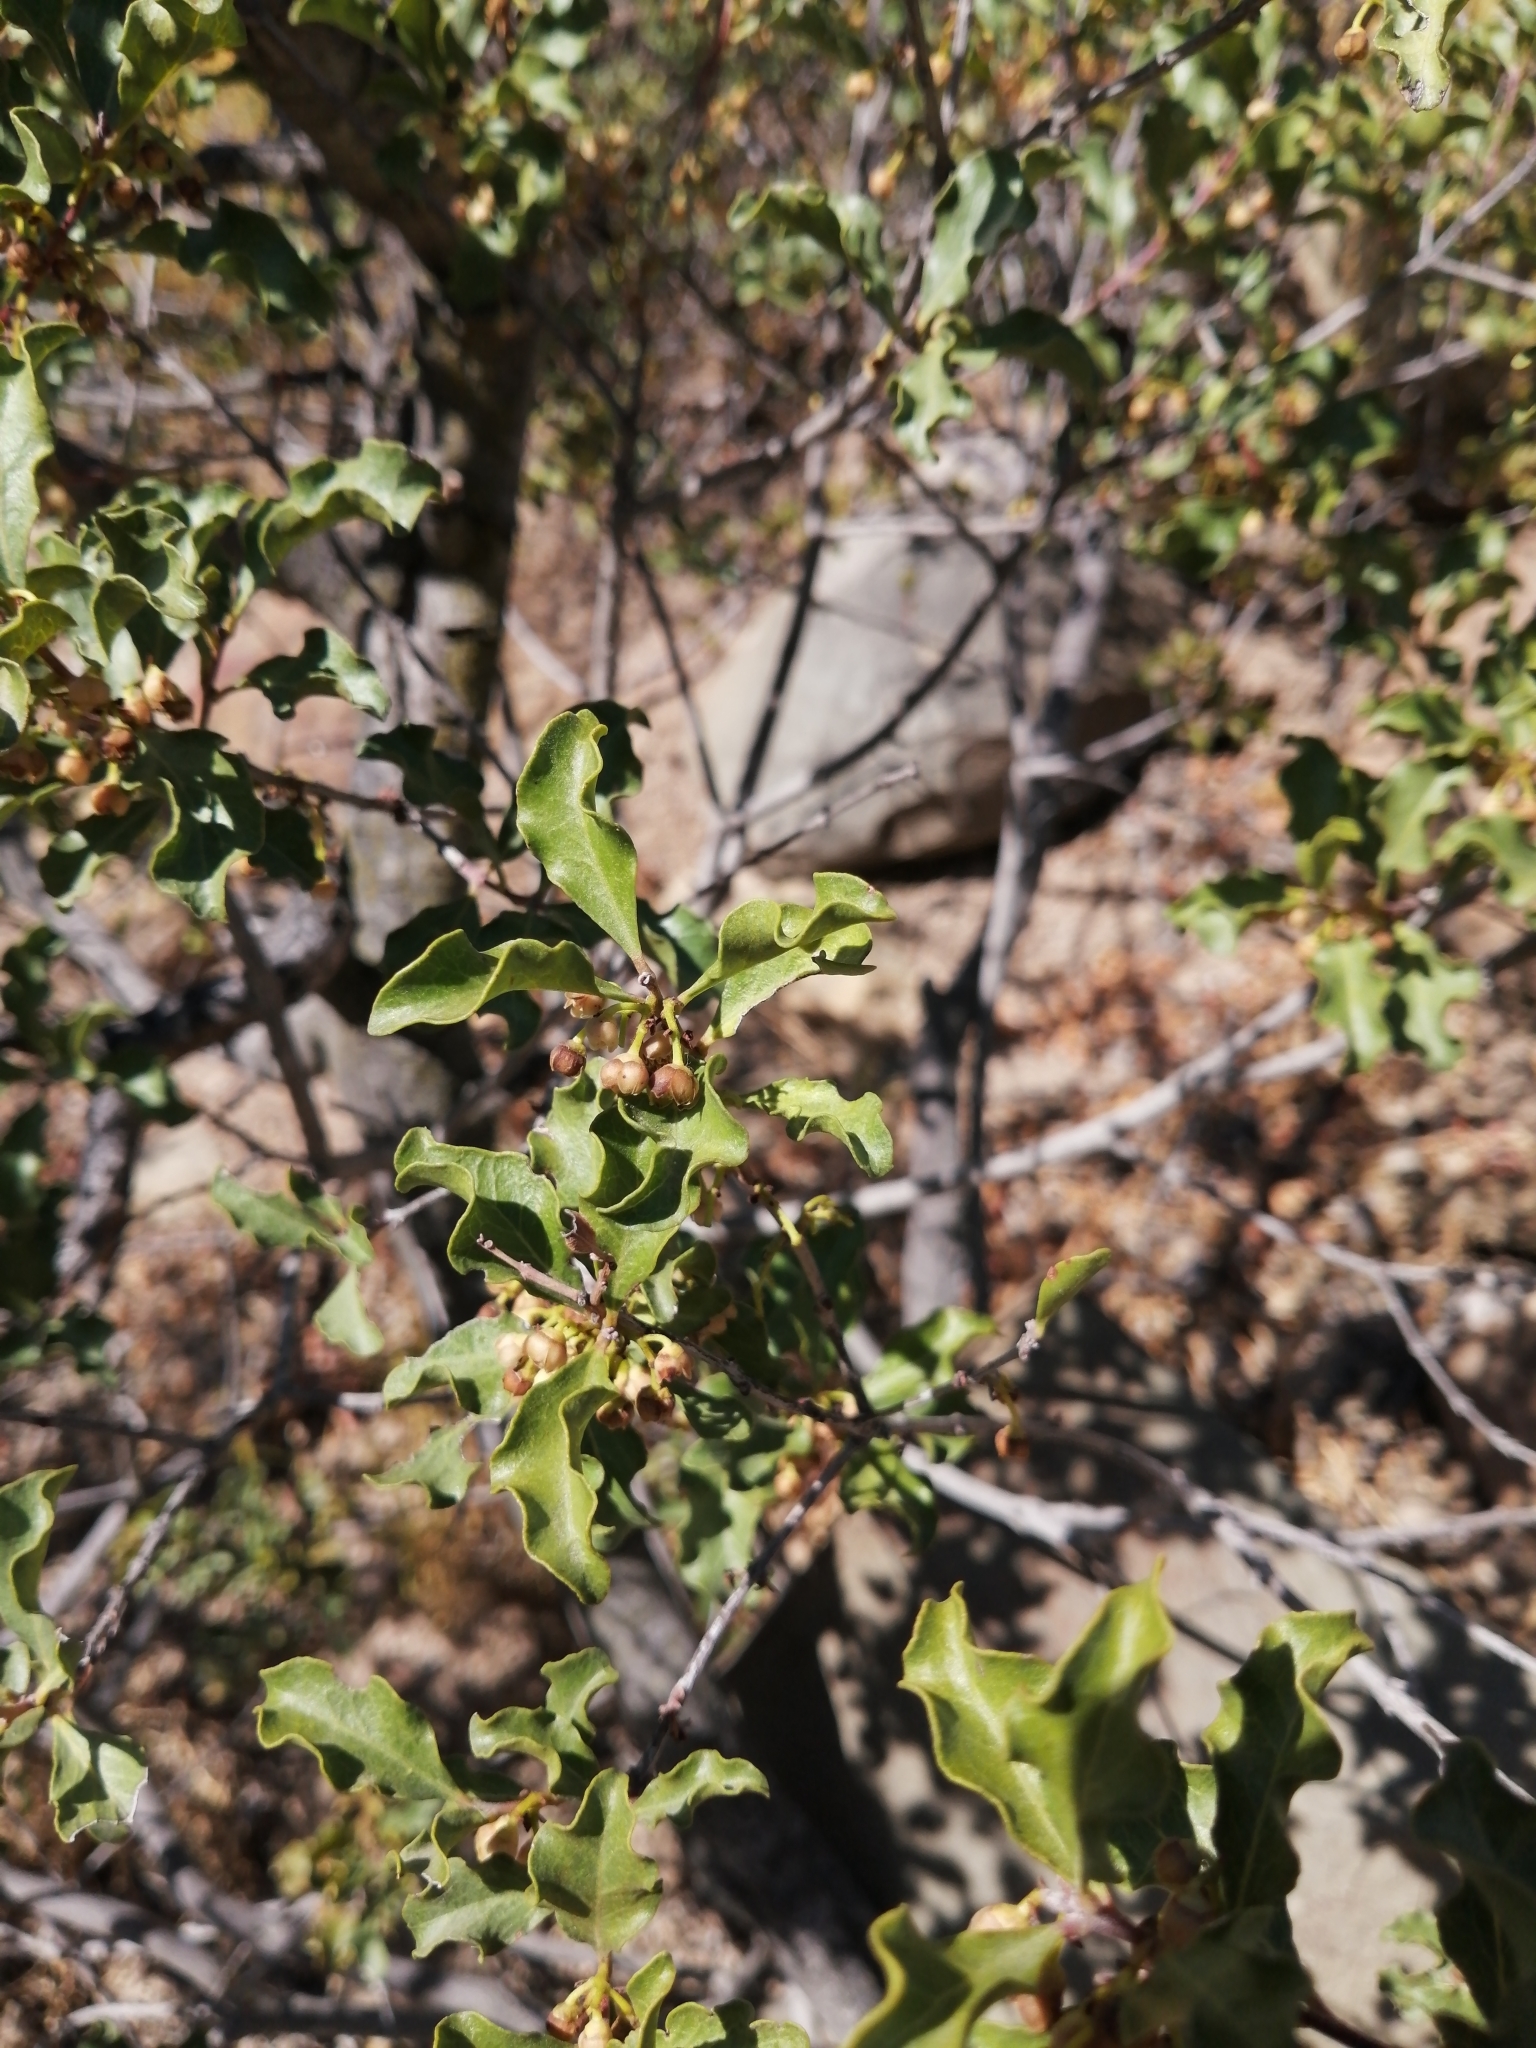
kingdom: Plantae
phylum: Tracheophyta
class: Magnoliopsida
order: Ericales
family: Ebenaceae
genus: Euclea
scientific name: Euclea undulata
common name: Small-leaved guarri
